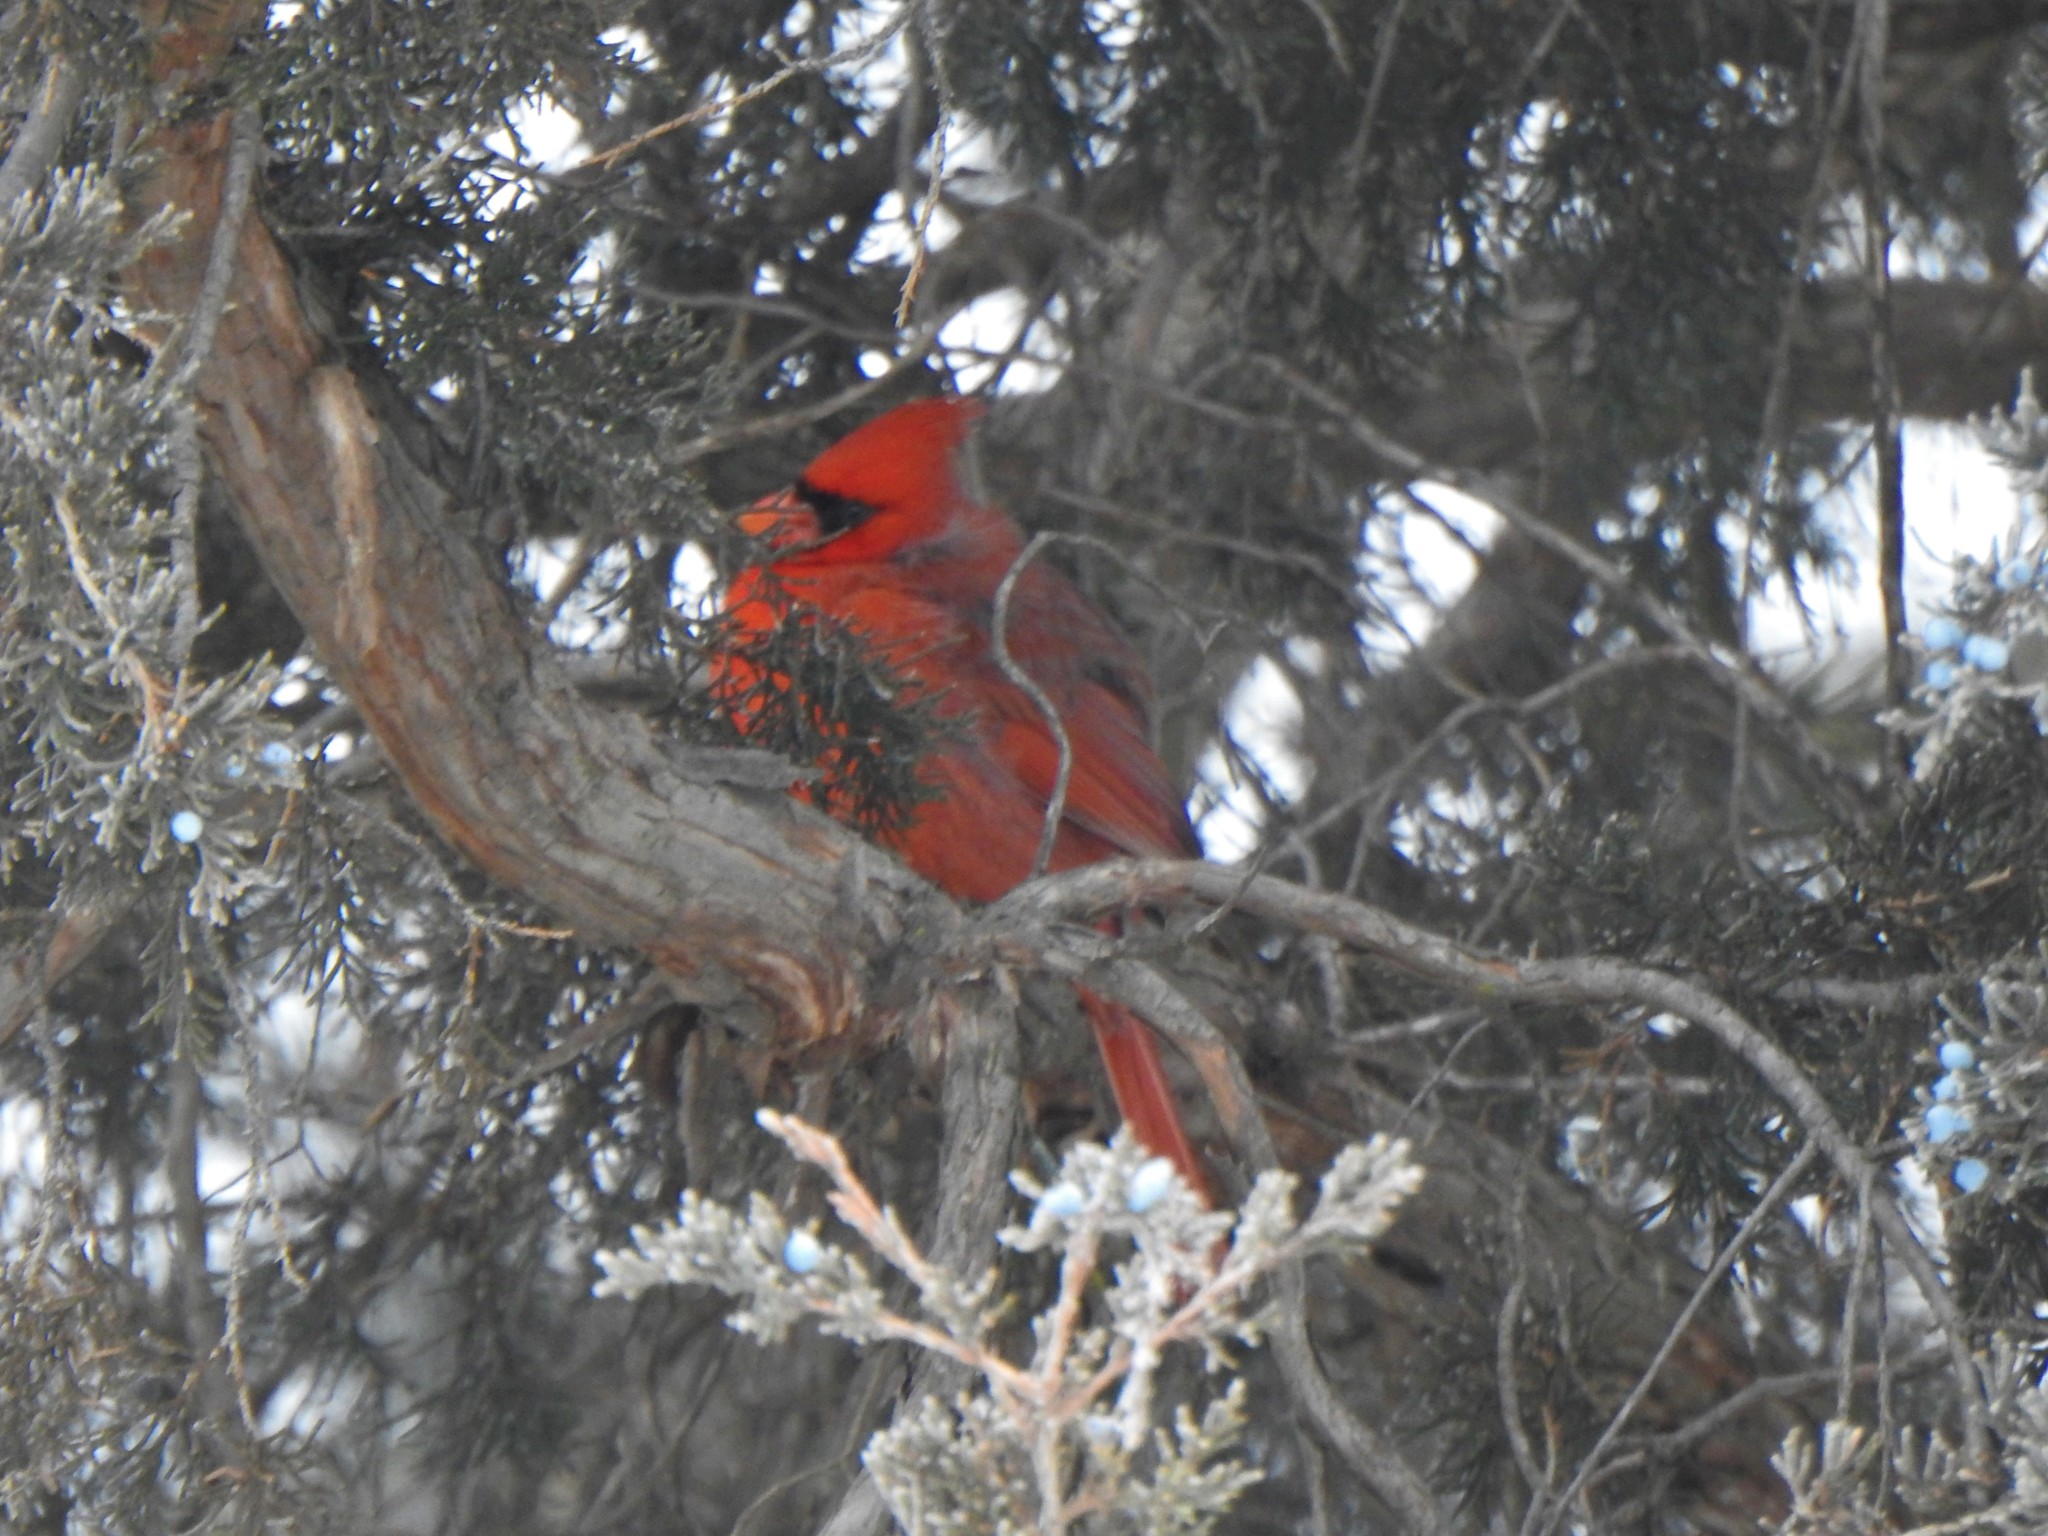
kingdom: Animalia
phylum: Chordata
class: Aves
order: Passeriformes
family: Cardinalidae
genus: Cardinalis
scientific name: Cardinalis cardinalis
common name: Northern cardinal
